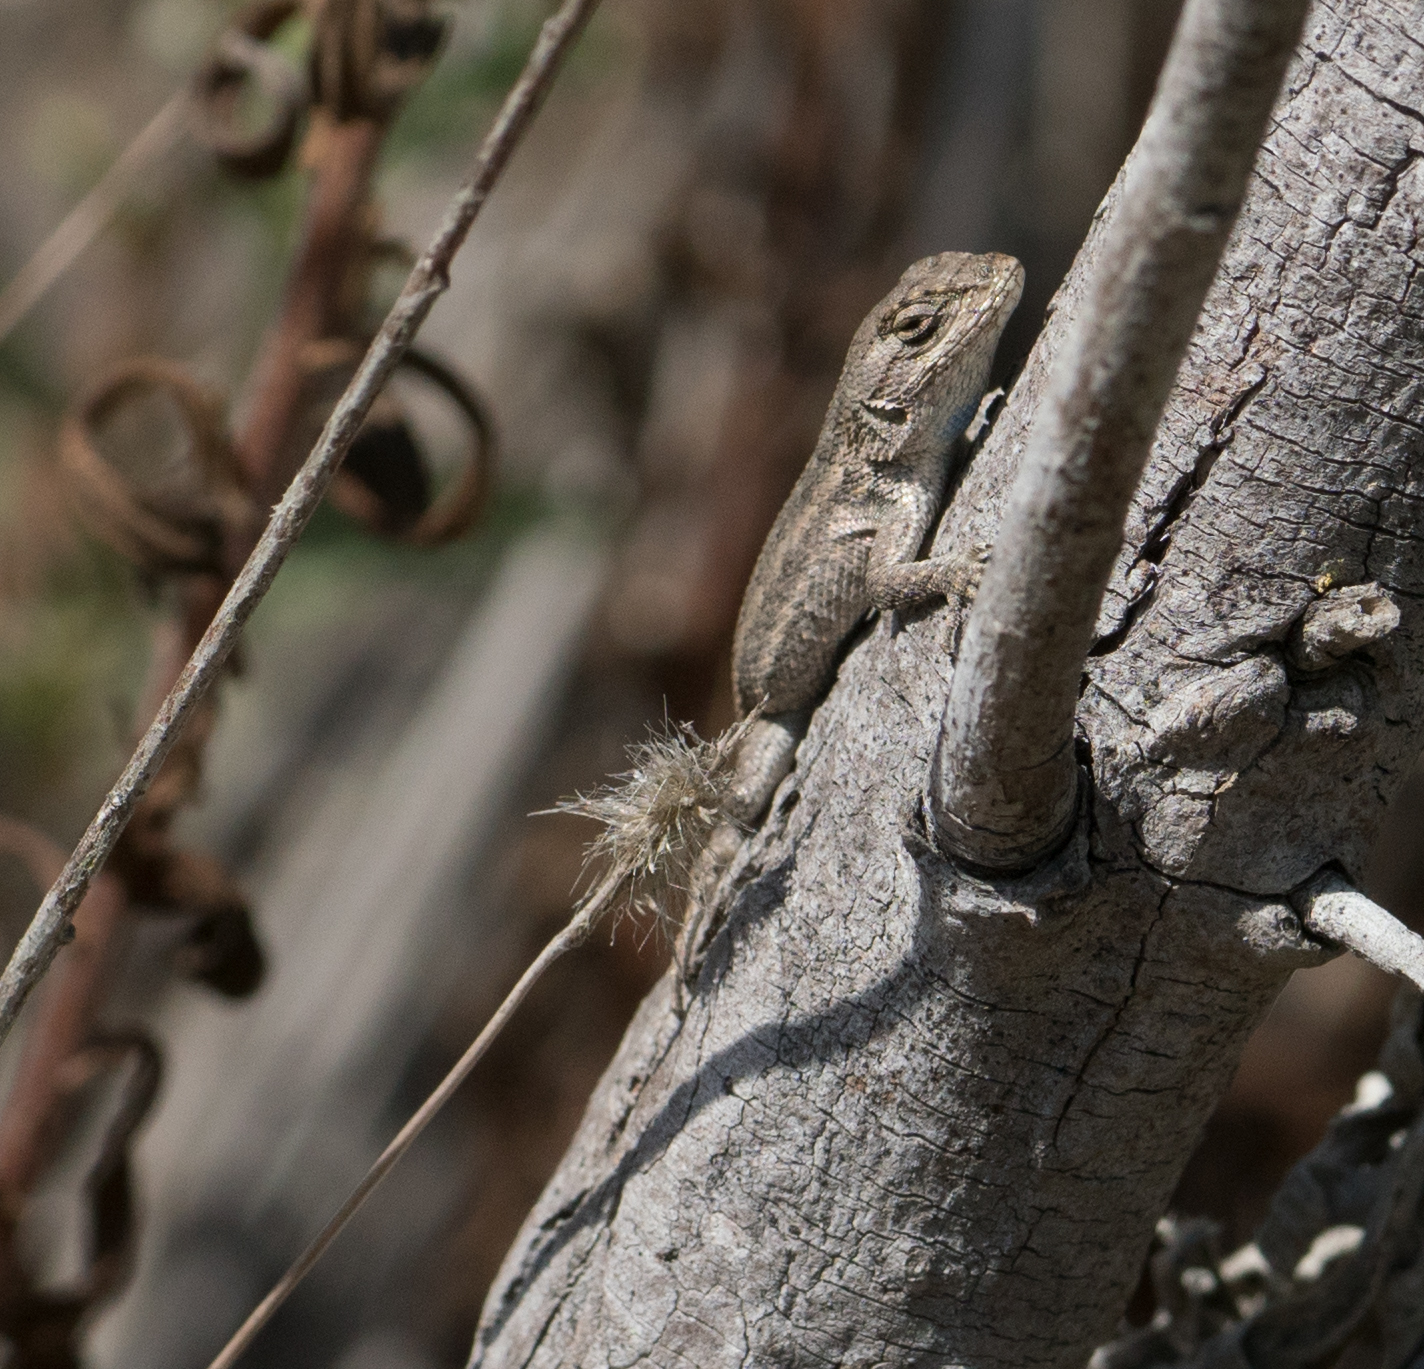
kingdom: Animalia
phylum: Chordata
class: Squamata
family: Phrynosomatidae
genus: Sceloporus
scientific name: Sceloporus occidentalis
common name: Western fence lizard
